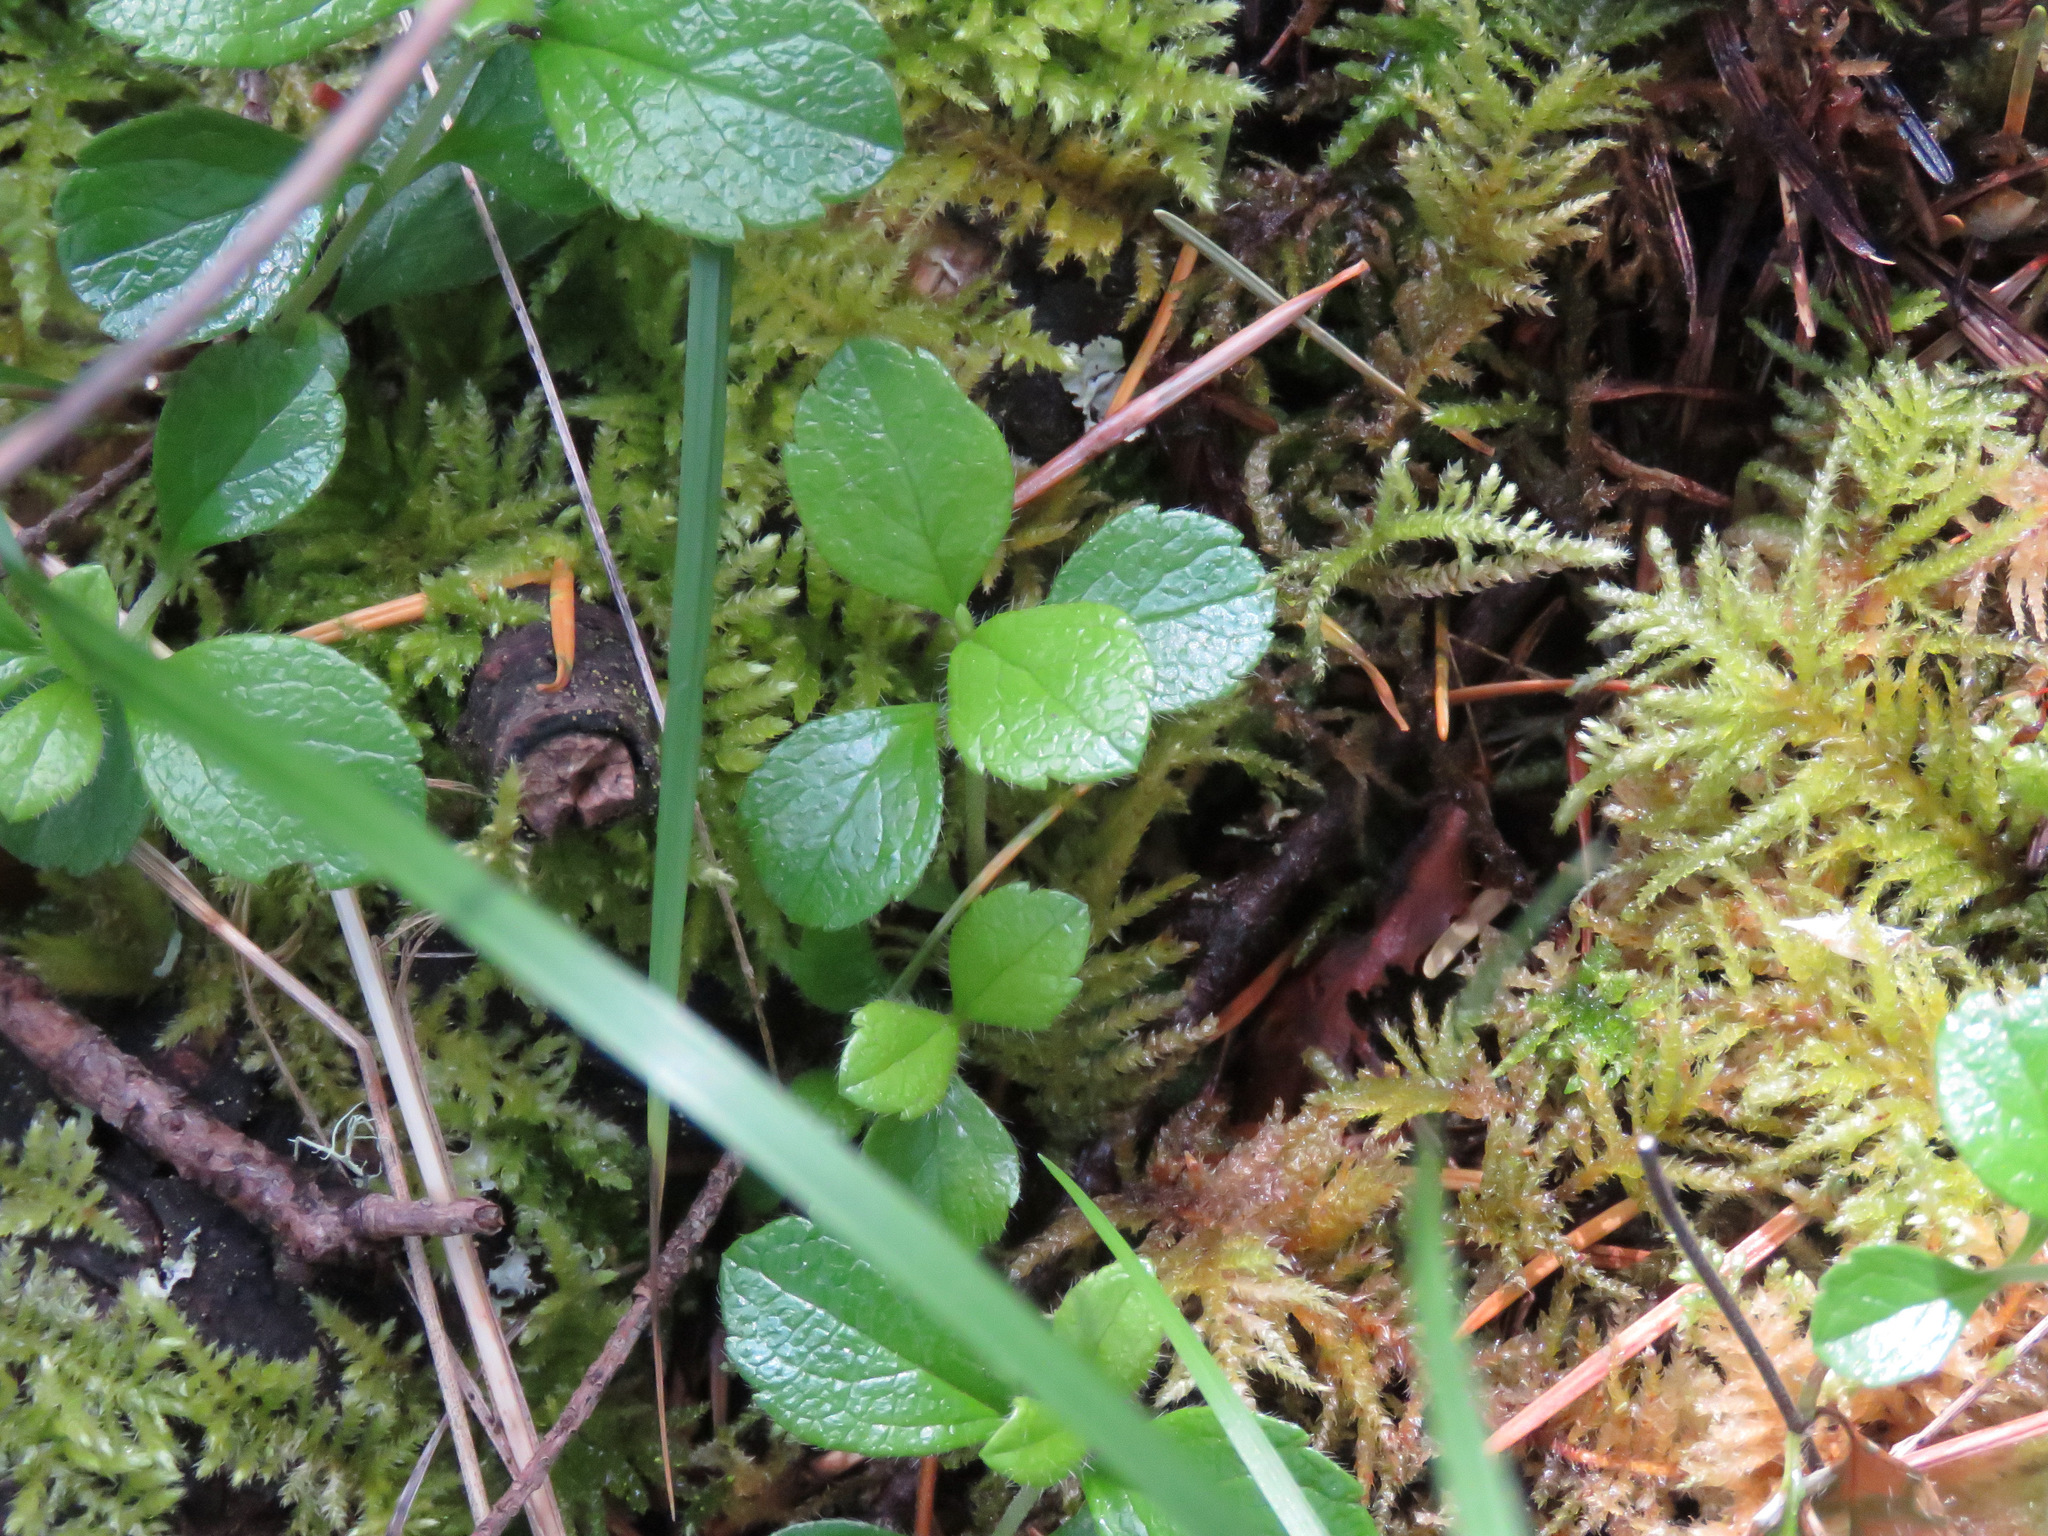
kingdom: Plantae
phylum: Tracheophyta
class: Magnoliopsida
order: Dipsacales
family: Caprifoliaceae
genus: Linnaea
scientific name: Linnaea borealis
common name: Twinflower
